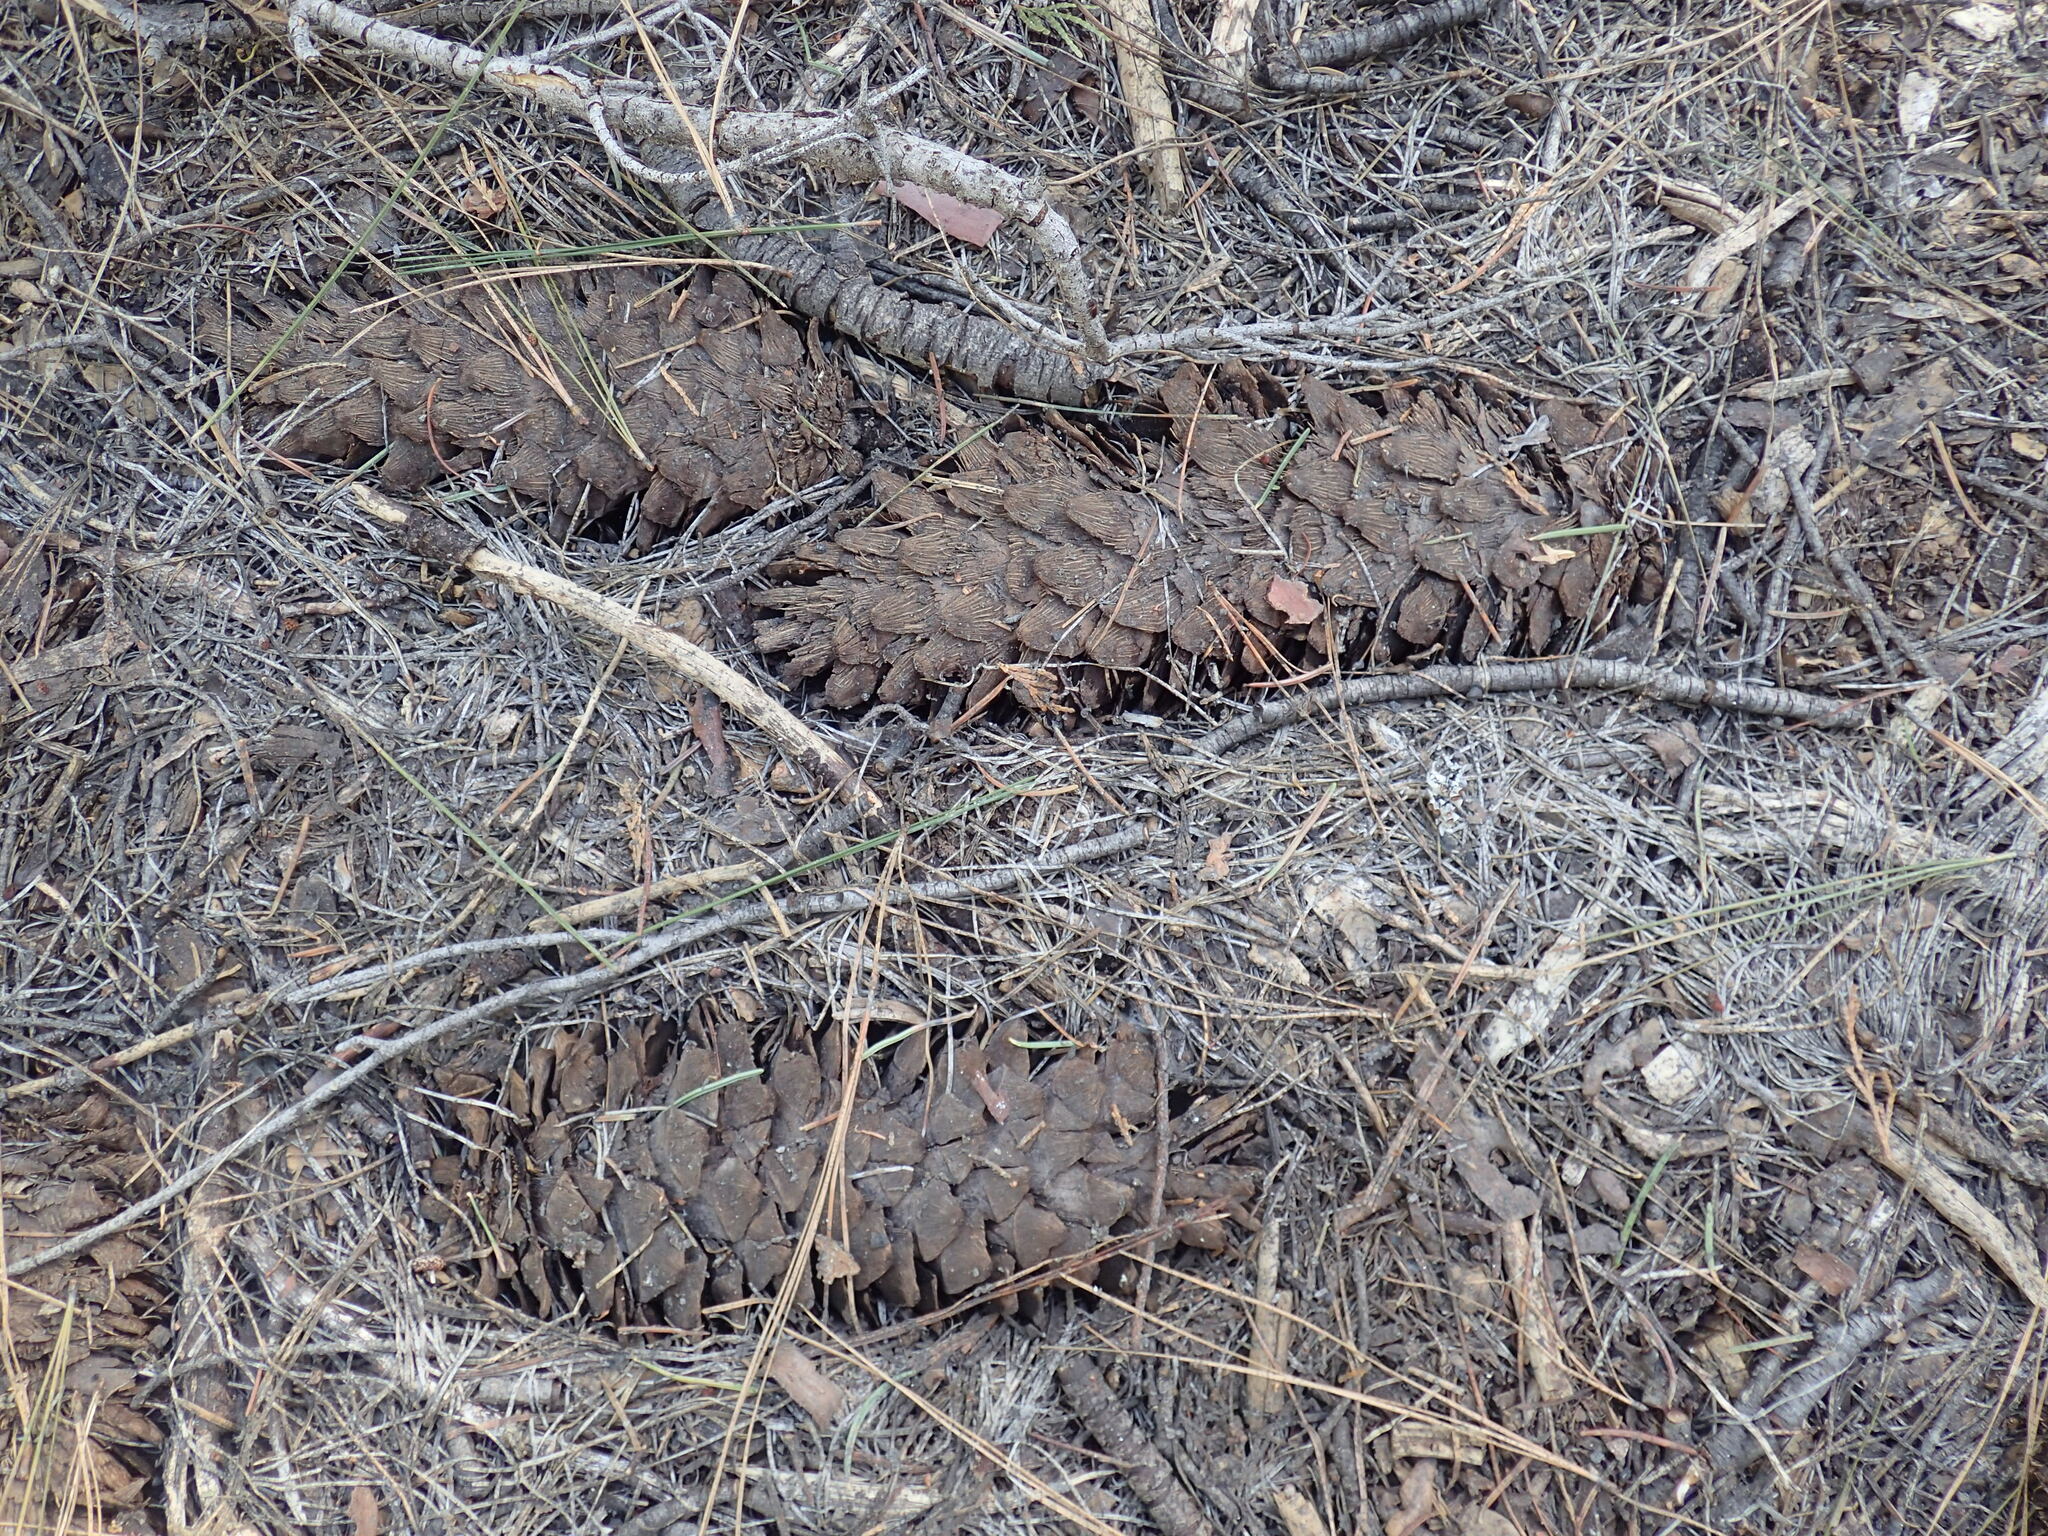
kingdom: Plantae
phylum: Tracheophyta
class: Pinopsida
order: Pinales
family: Pinaceae
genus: Pinus
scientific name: Pinus lambertiana
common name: Sugar pine
